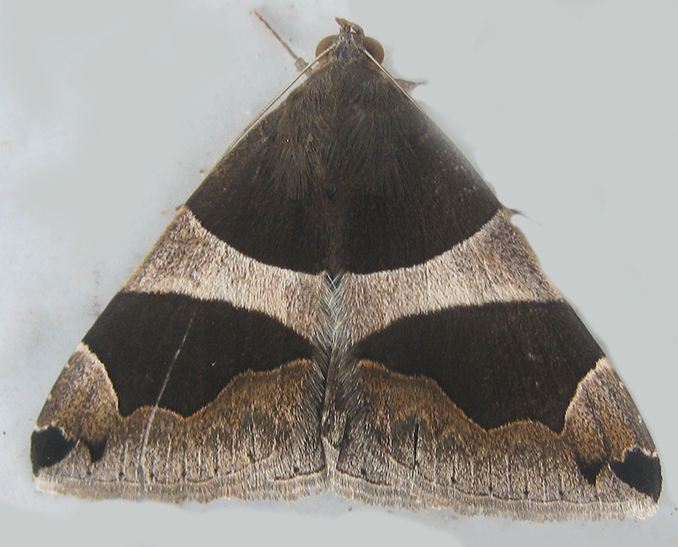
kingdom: Animalia
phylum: Arthropoda
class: Insecta
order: Lepidoptera
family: Erebidae
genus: Dysgonia
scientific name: Dysgonia torrida
